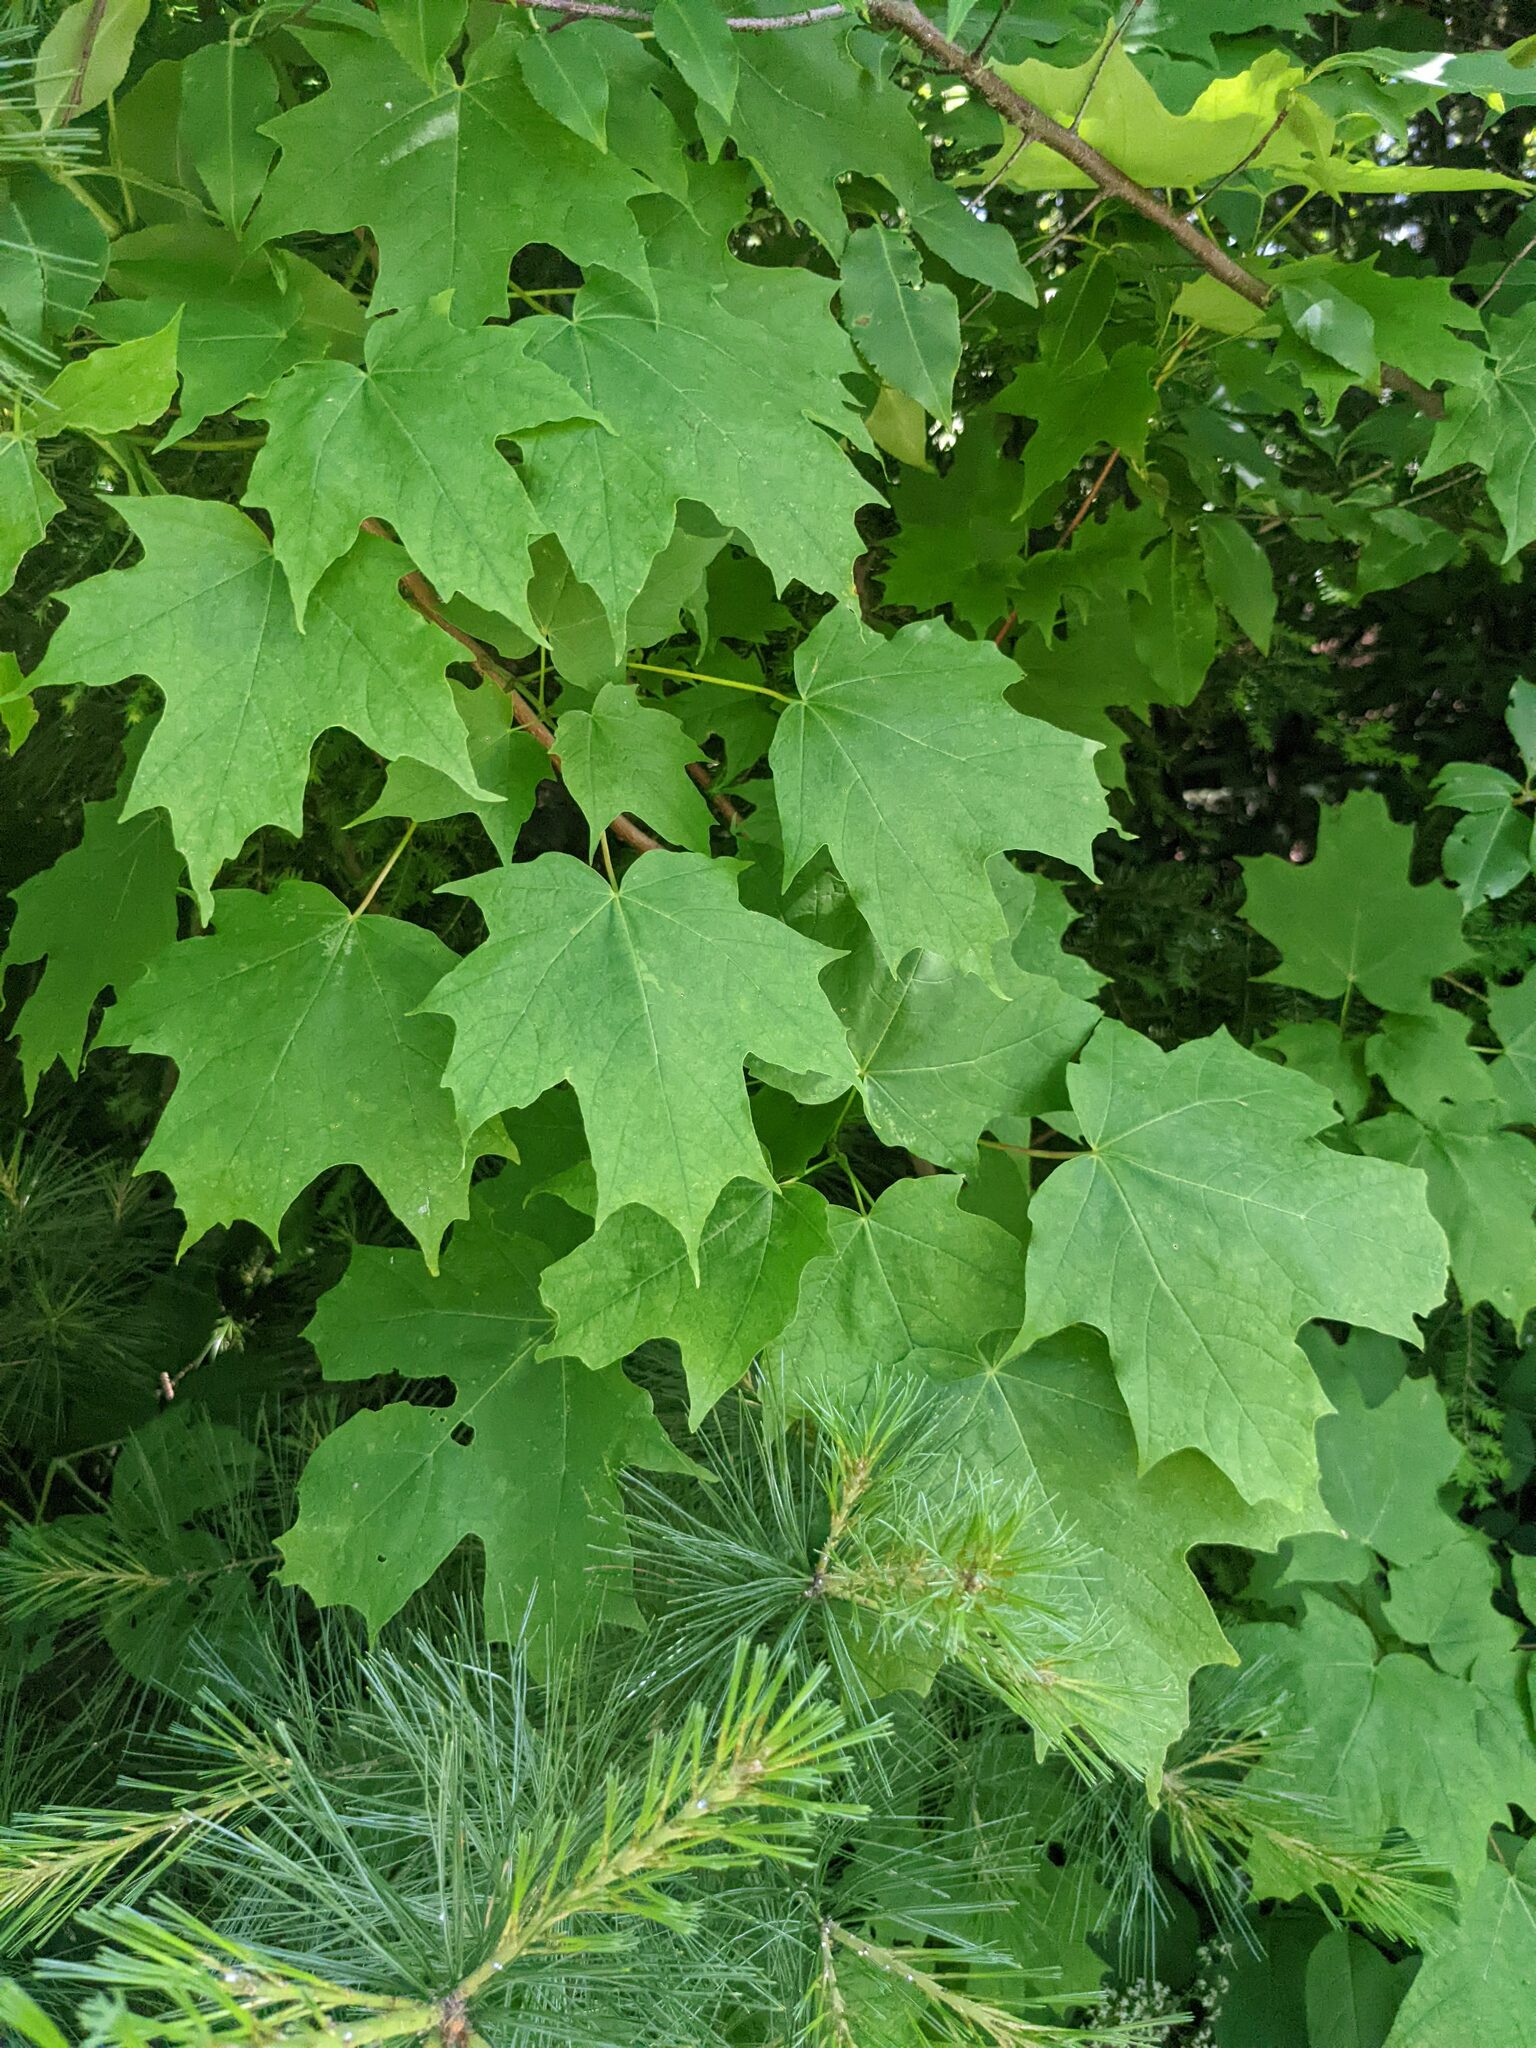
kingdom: Plantae
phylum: Tracheophyta
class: Magnoliopsida
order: Sapindales
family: Sapindaceae
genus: Acer
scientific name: Acer saccharum
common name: Sugar maple
